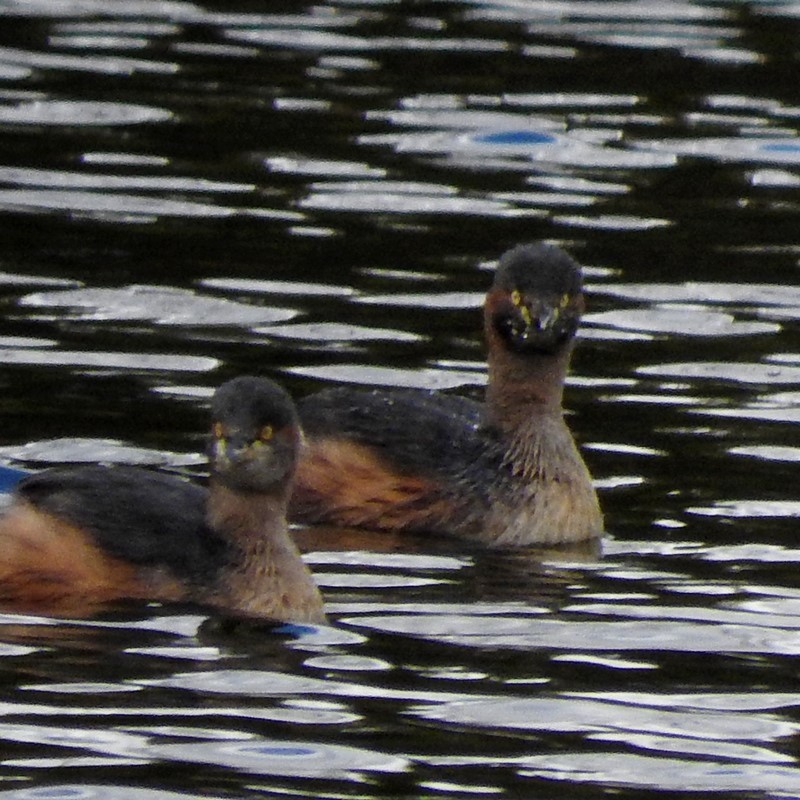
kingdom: Animalia
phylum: Chordata
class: Aves
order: Podicipediformes
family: Podicipedidae
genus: Tachybaptus
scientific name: Tachybaptus novaehollandiae
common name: Australasian grebe
